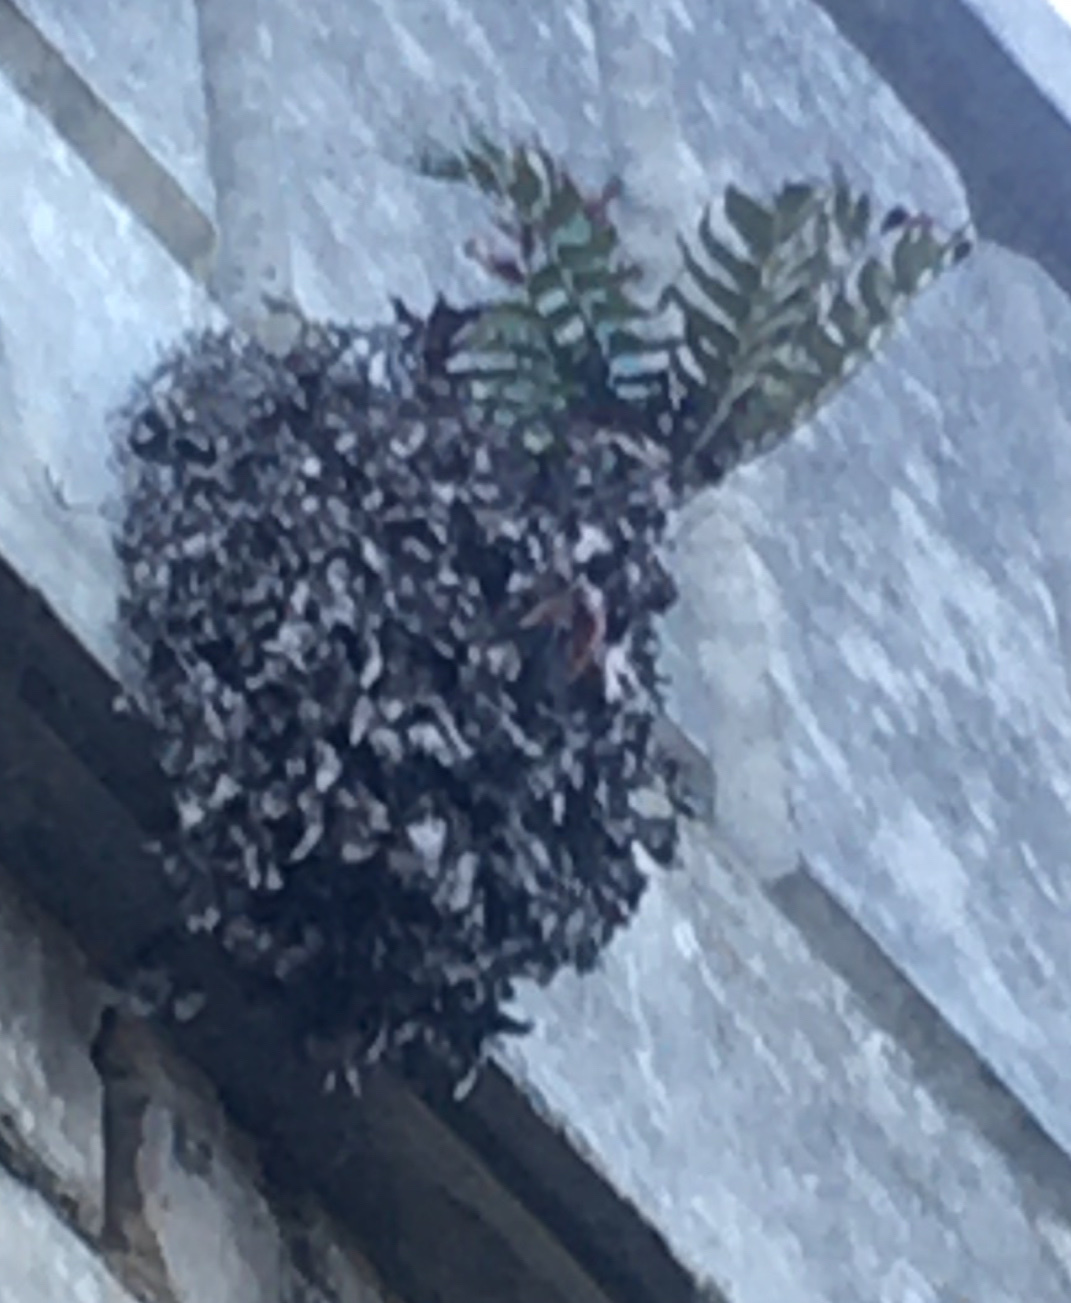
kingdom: Plantae
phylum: Tracheophyta
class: Polypodiopsida
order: Polypodiales
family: Dryopteridaceae
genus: Cyrtomium
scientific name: Cyrtomium falcatum
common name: House holly-fern
